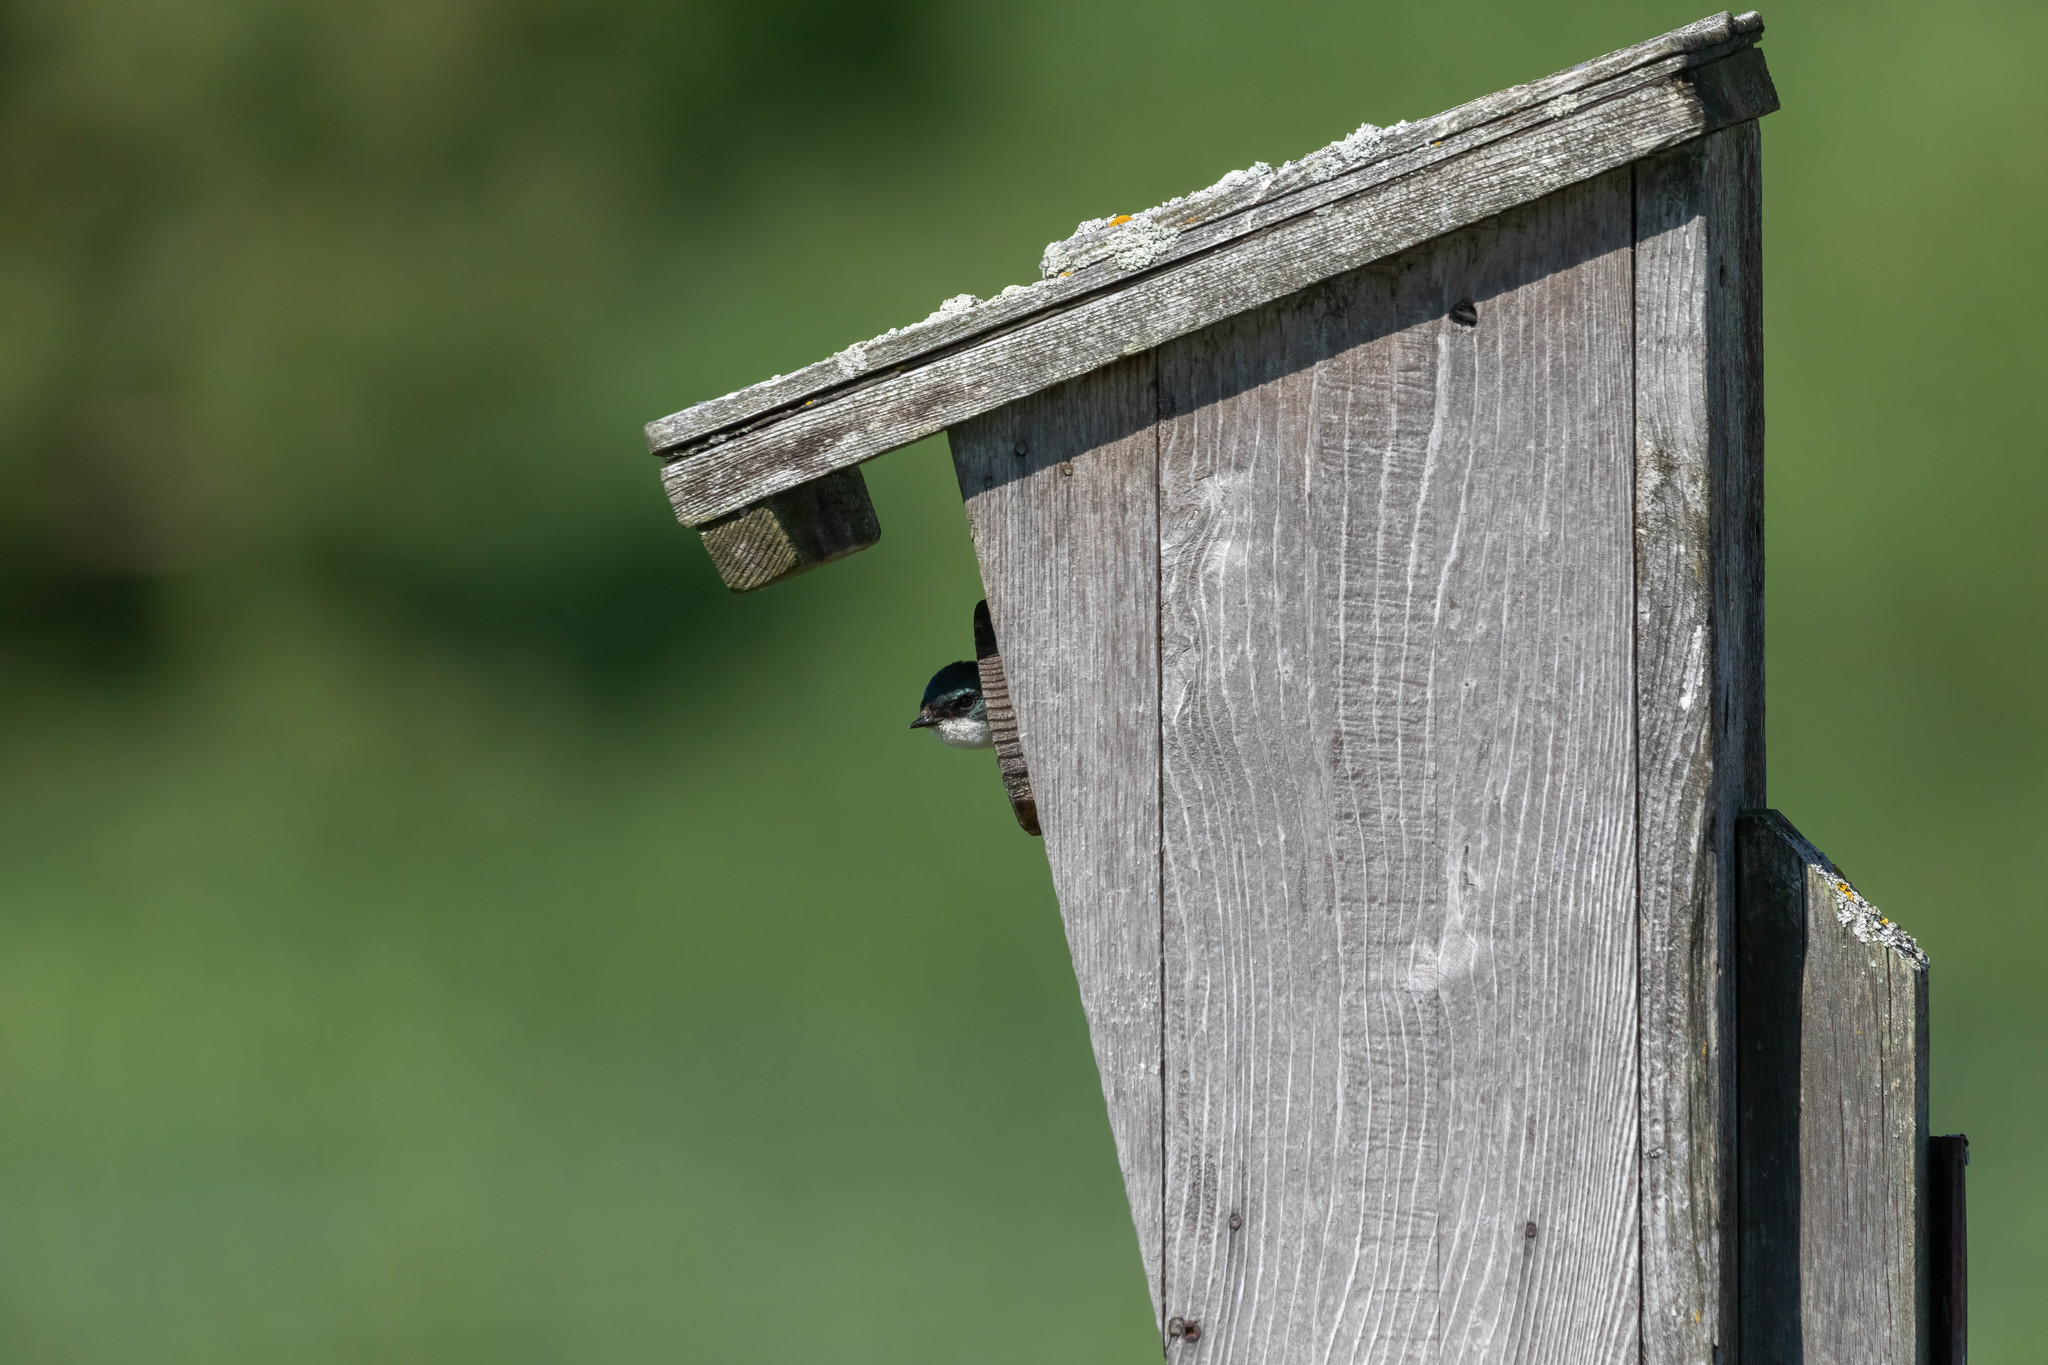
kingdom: Animalia
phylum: Chordata
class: Aves
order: Passeriformes
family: Hirundinidae
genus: Tachycineta
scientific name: Tachycineta bicolor
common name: Tree swallow
